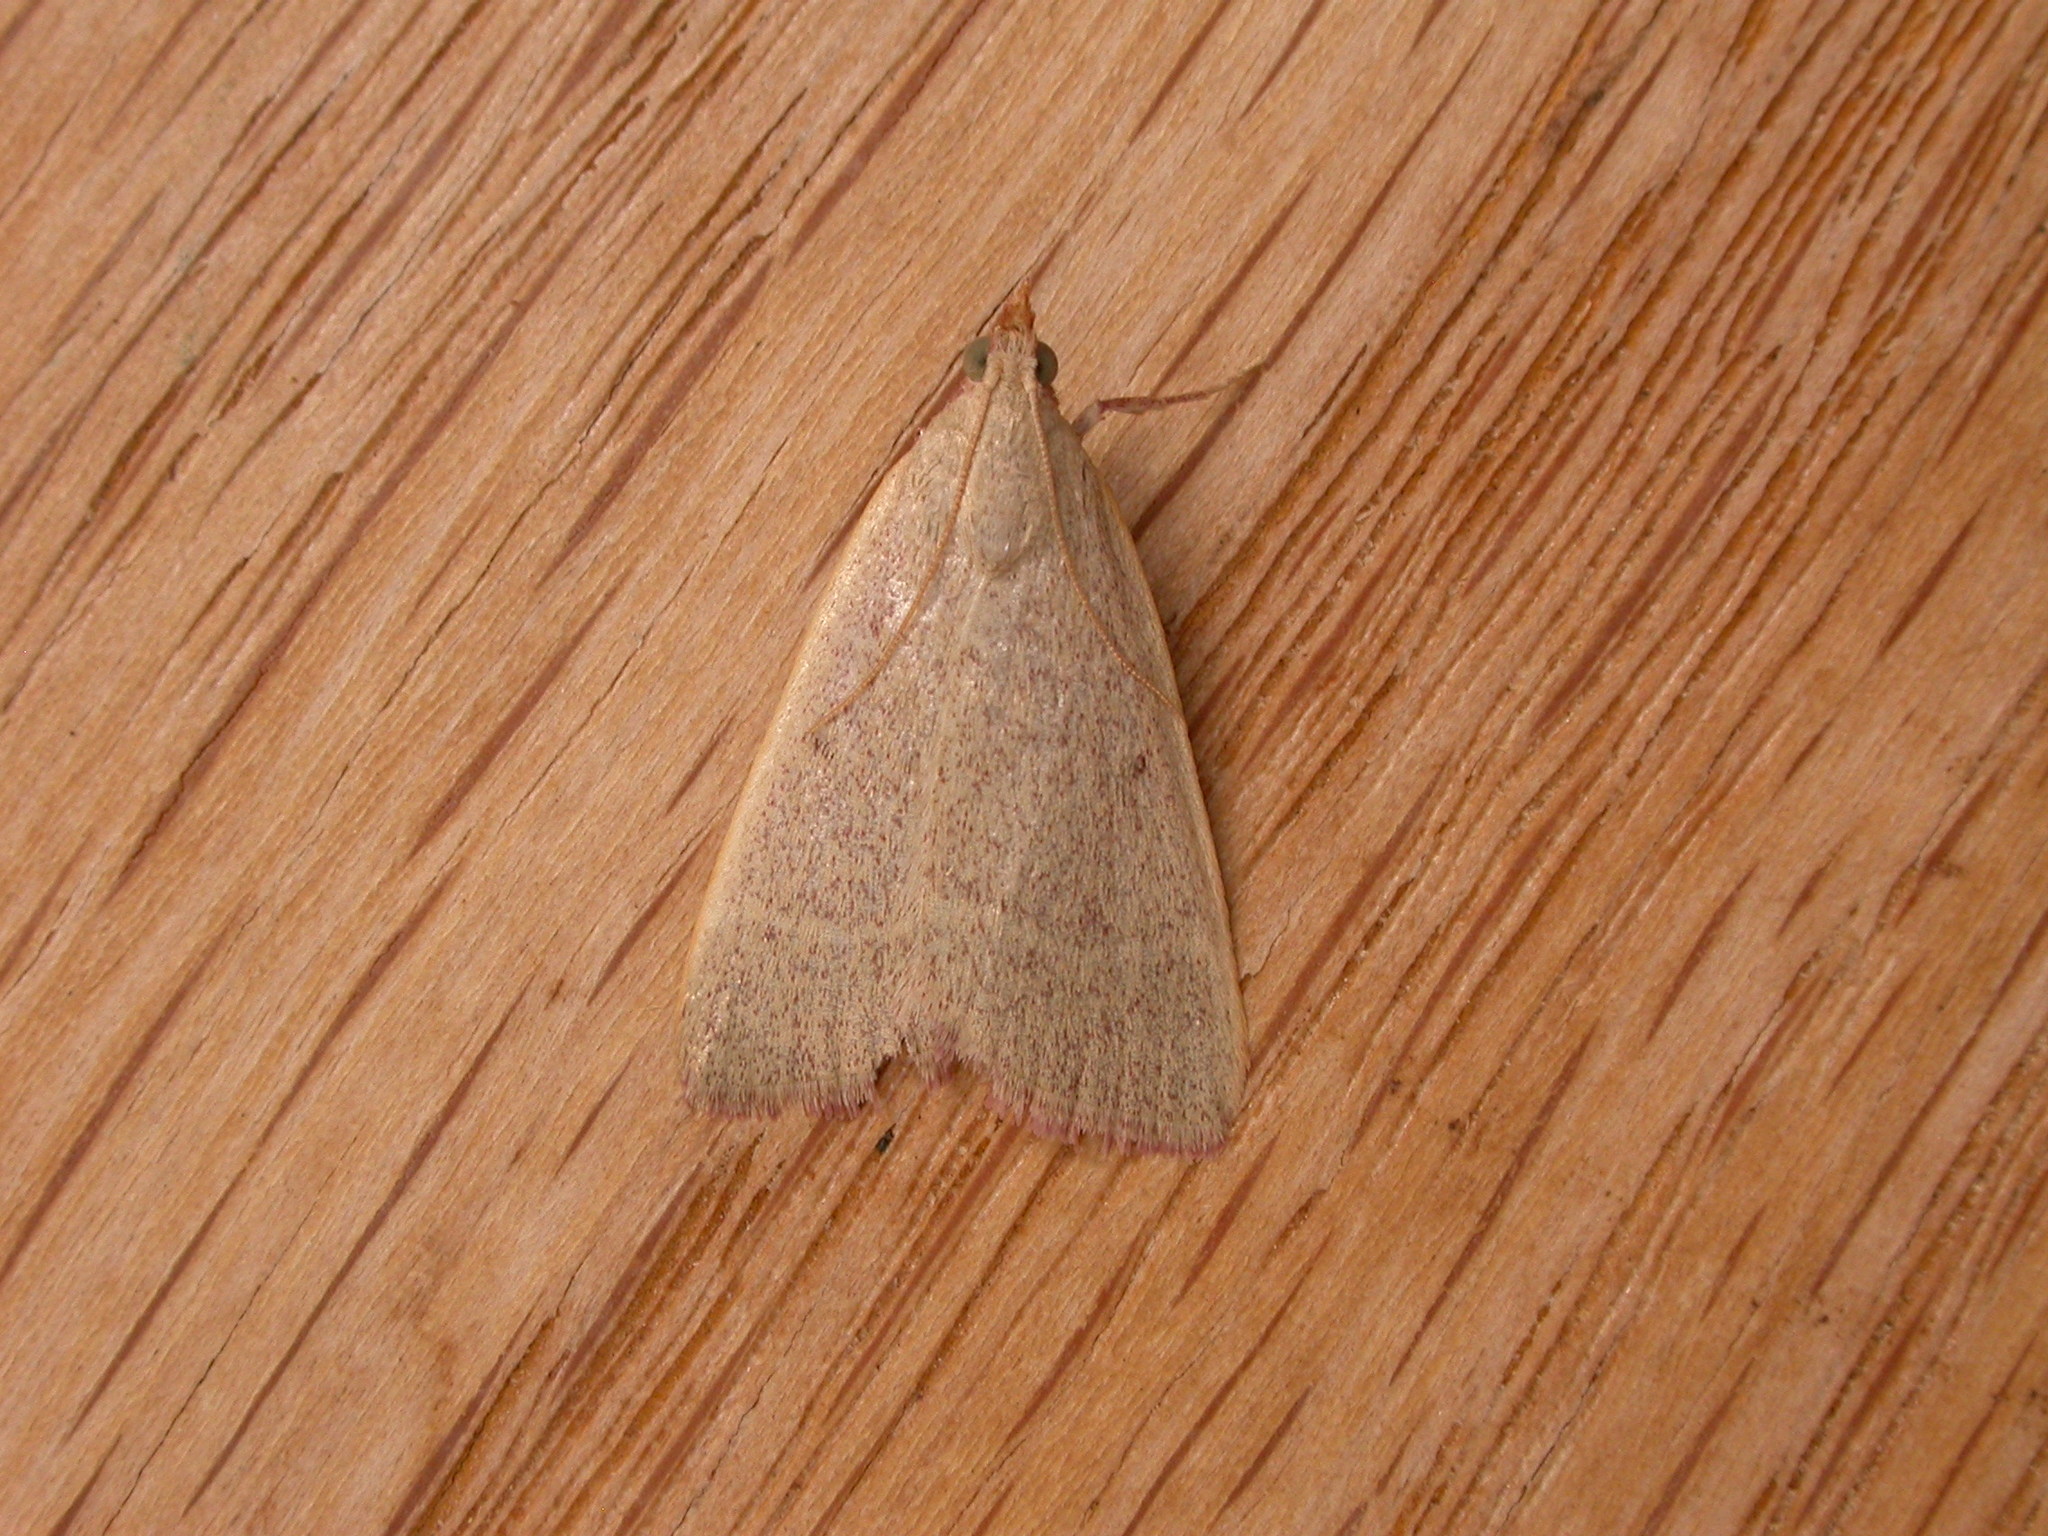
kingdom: Animalia
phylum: Arthropoda
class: Insecta
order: Lepidoptera
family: Pyralidae
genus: Hypsopygia
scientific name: Hypsopygia
